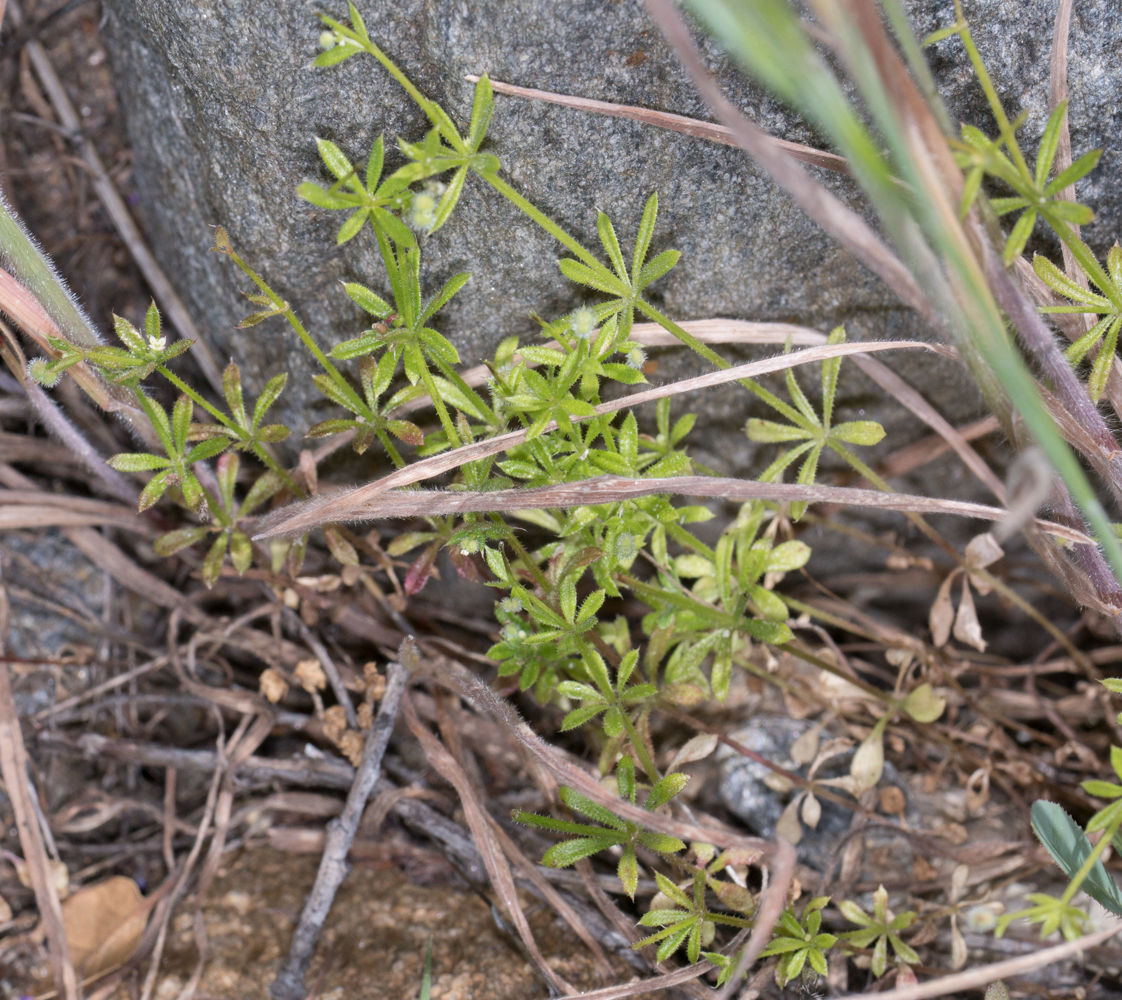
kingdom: Plantae
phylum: Tracheophyta
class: Magnoliopsida
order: Gentianales
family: Rubiaceae
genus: Galium
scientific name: Galium aparine
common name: Cleavers
